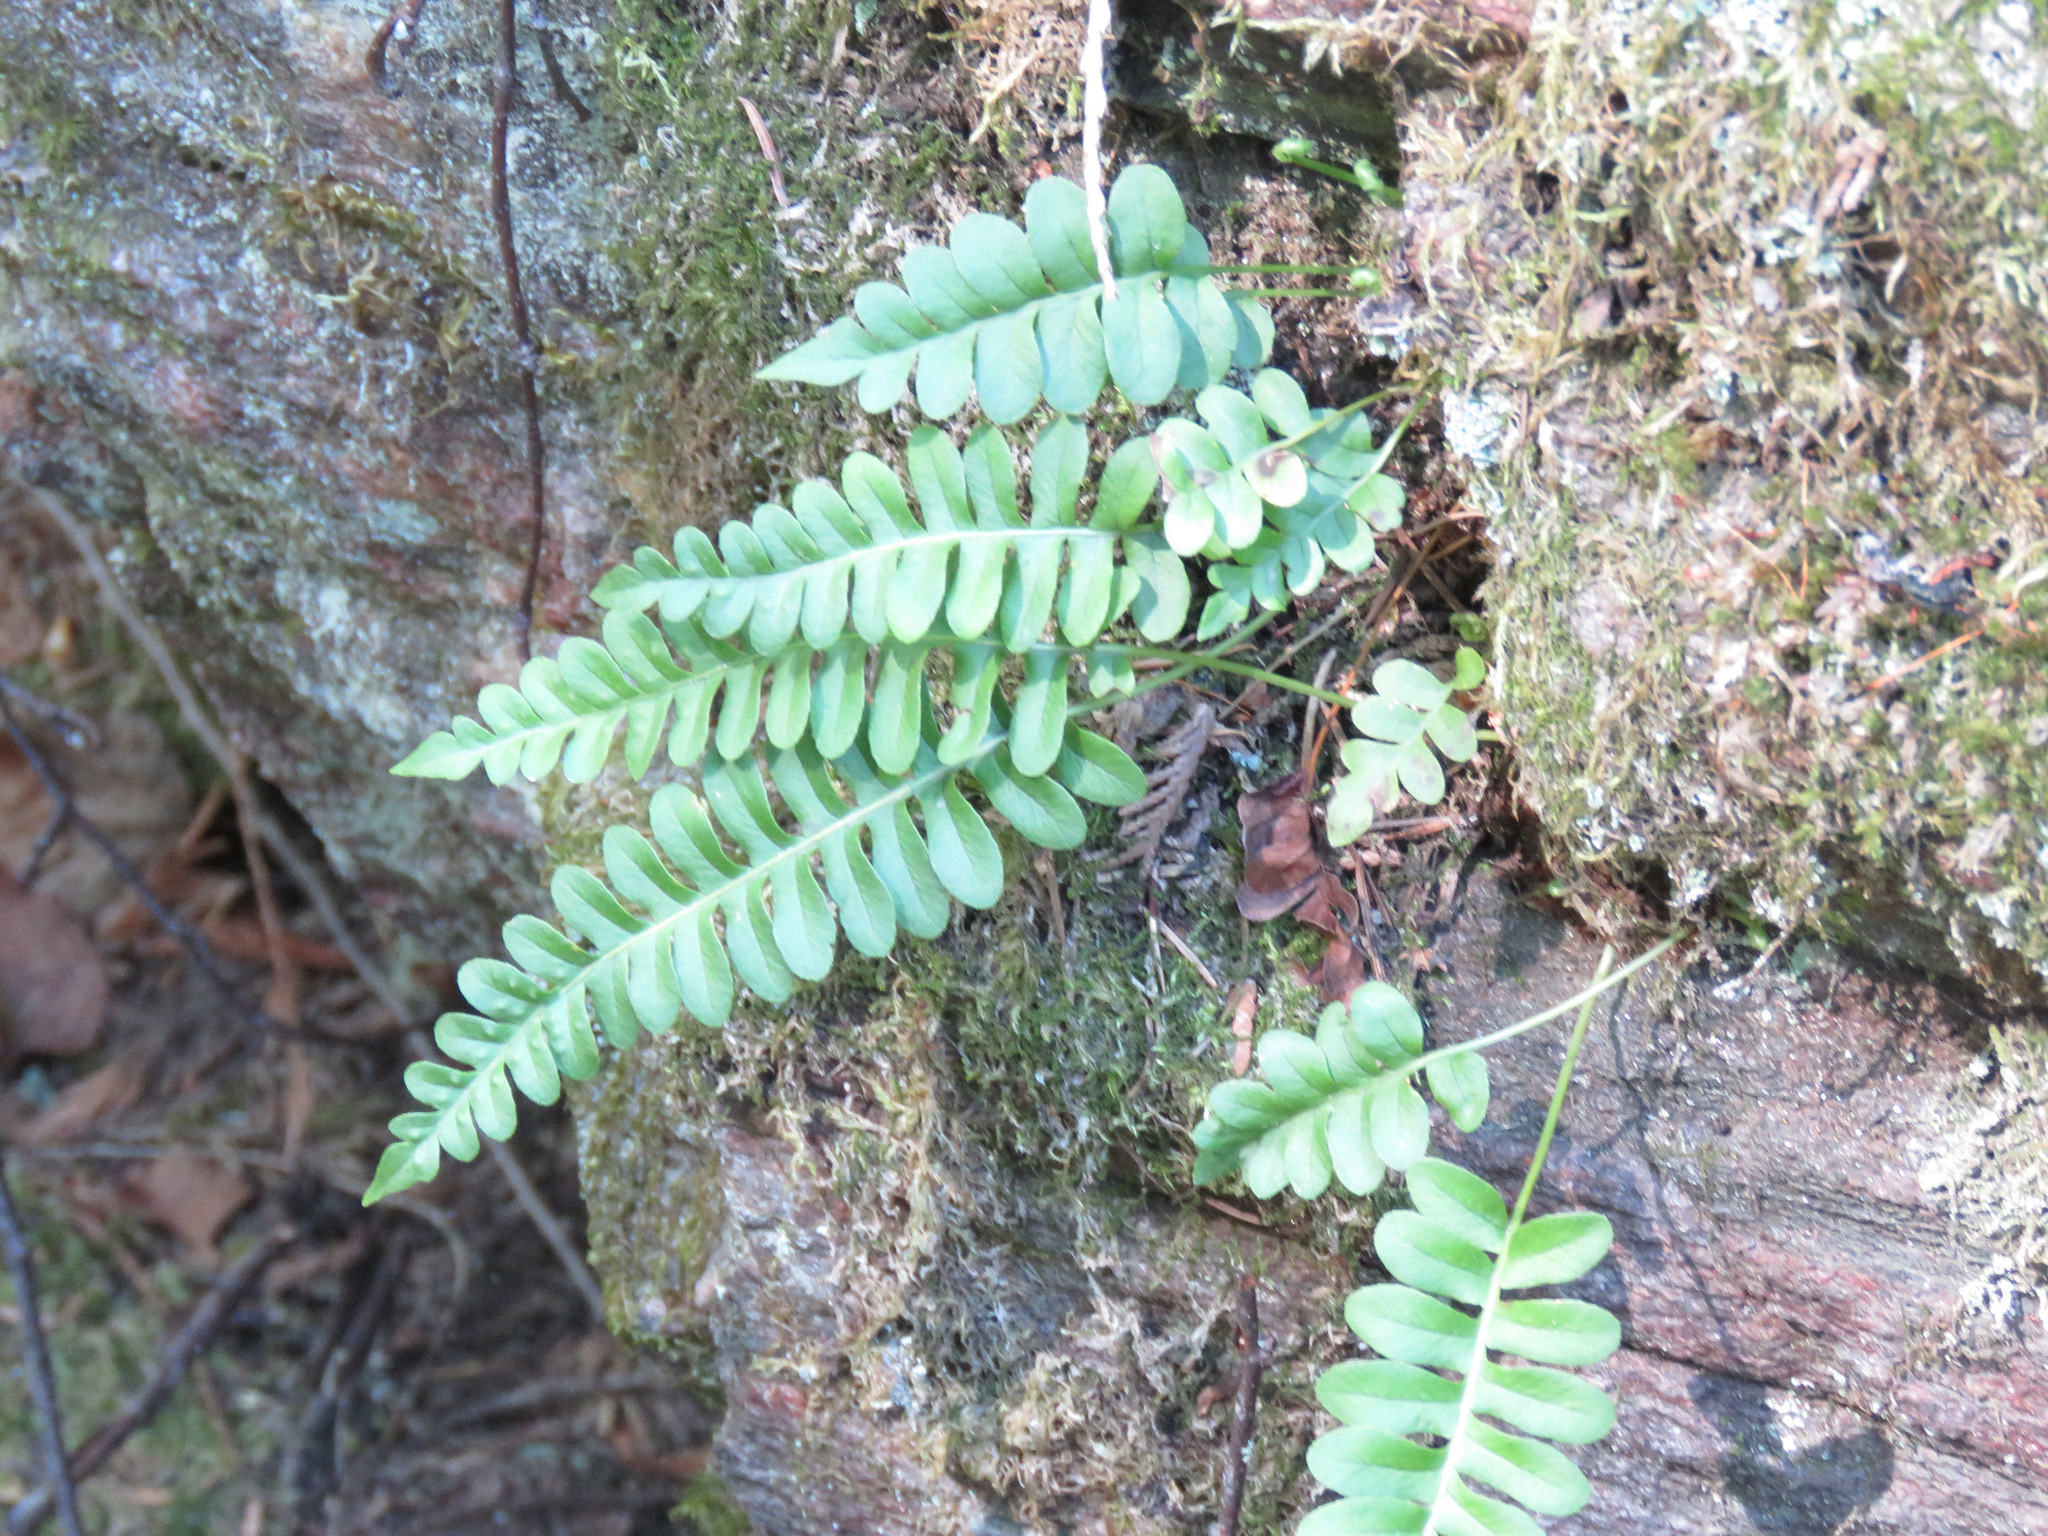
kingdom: Plantae
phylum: Tracheophyta
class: Polypodiopsida
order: Polypodiales
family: Polypodiaceae
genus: Polypodium
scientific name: Polypodium hesperium
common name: Western polypody
